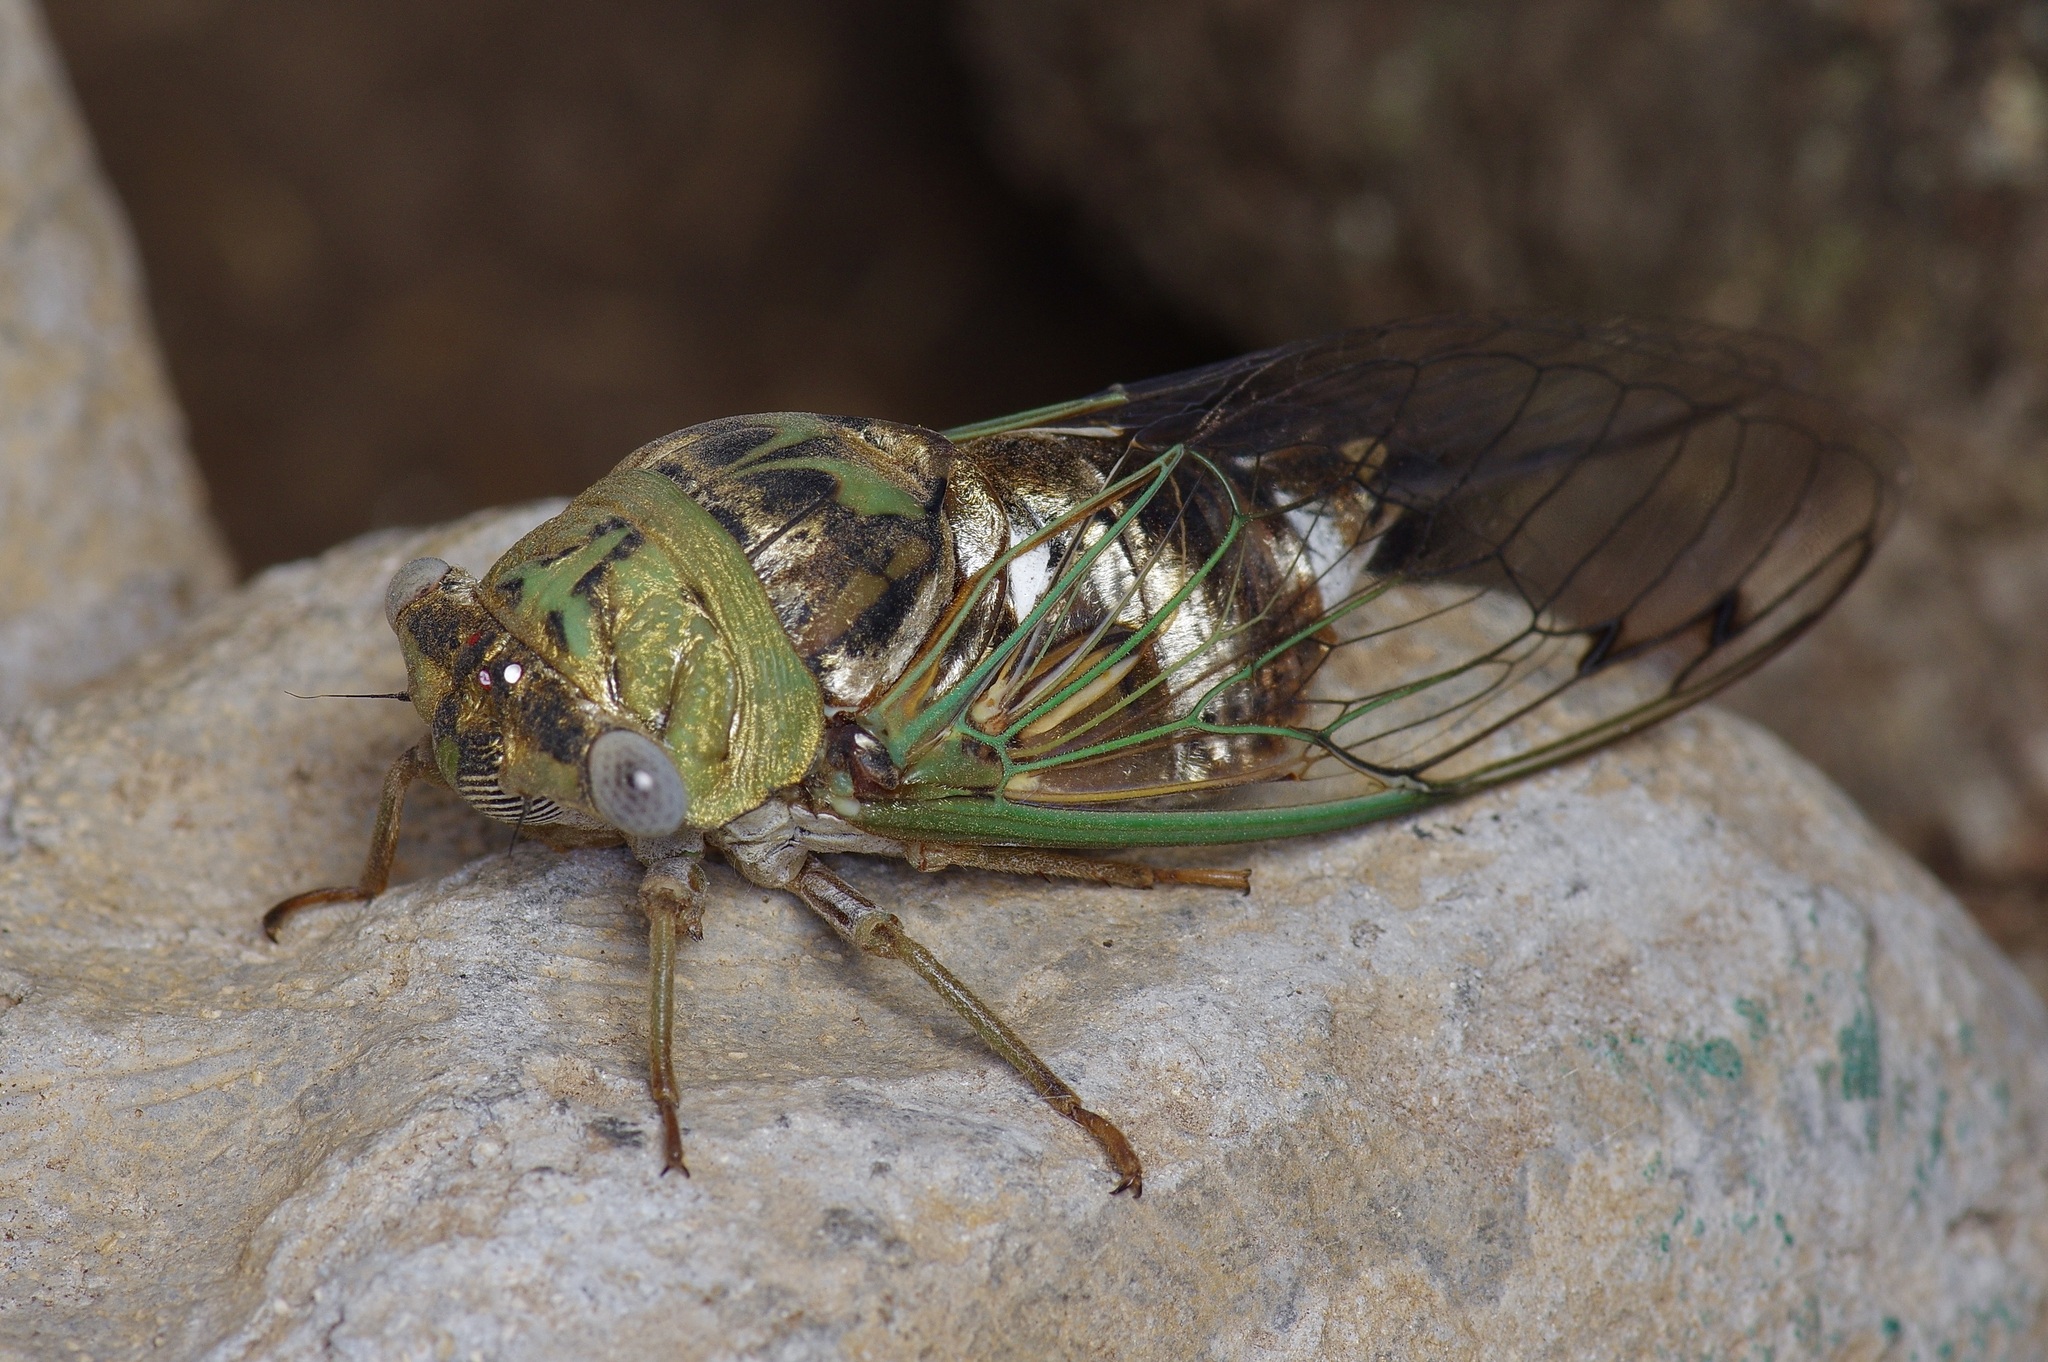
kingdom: Animalia
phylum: Arthropoda
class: Insecta
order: Hemiptera
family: Cicadidae
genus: Megatibicen
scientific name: Megatibicen resh
